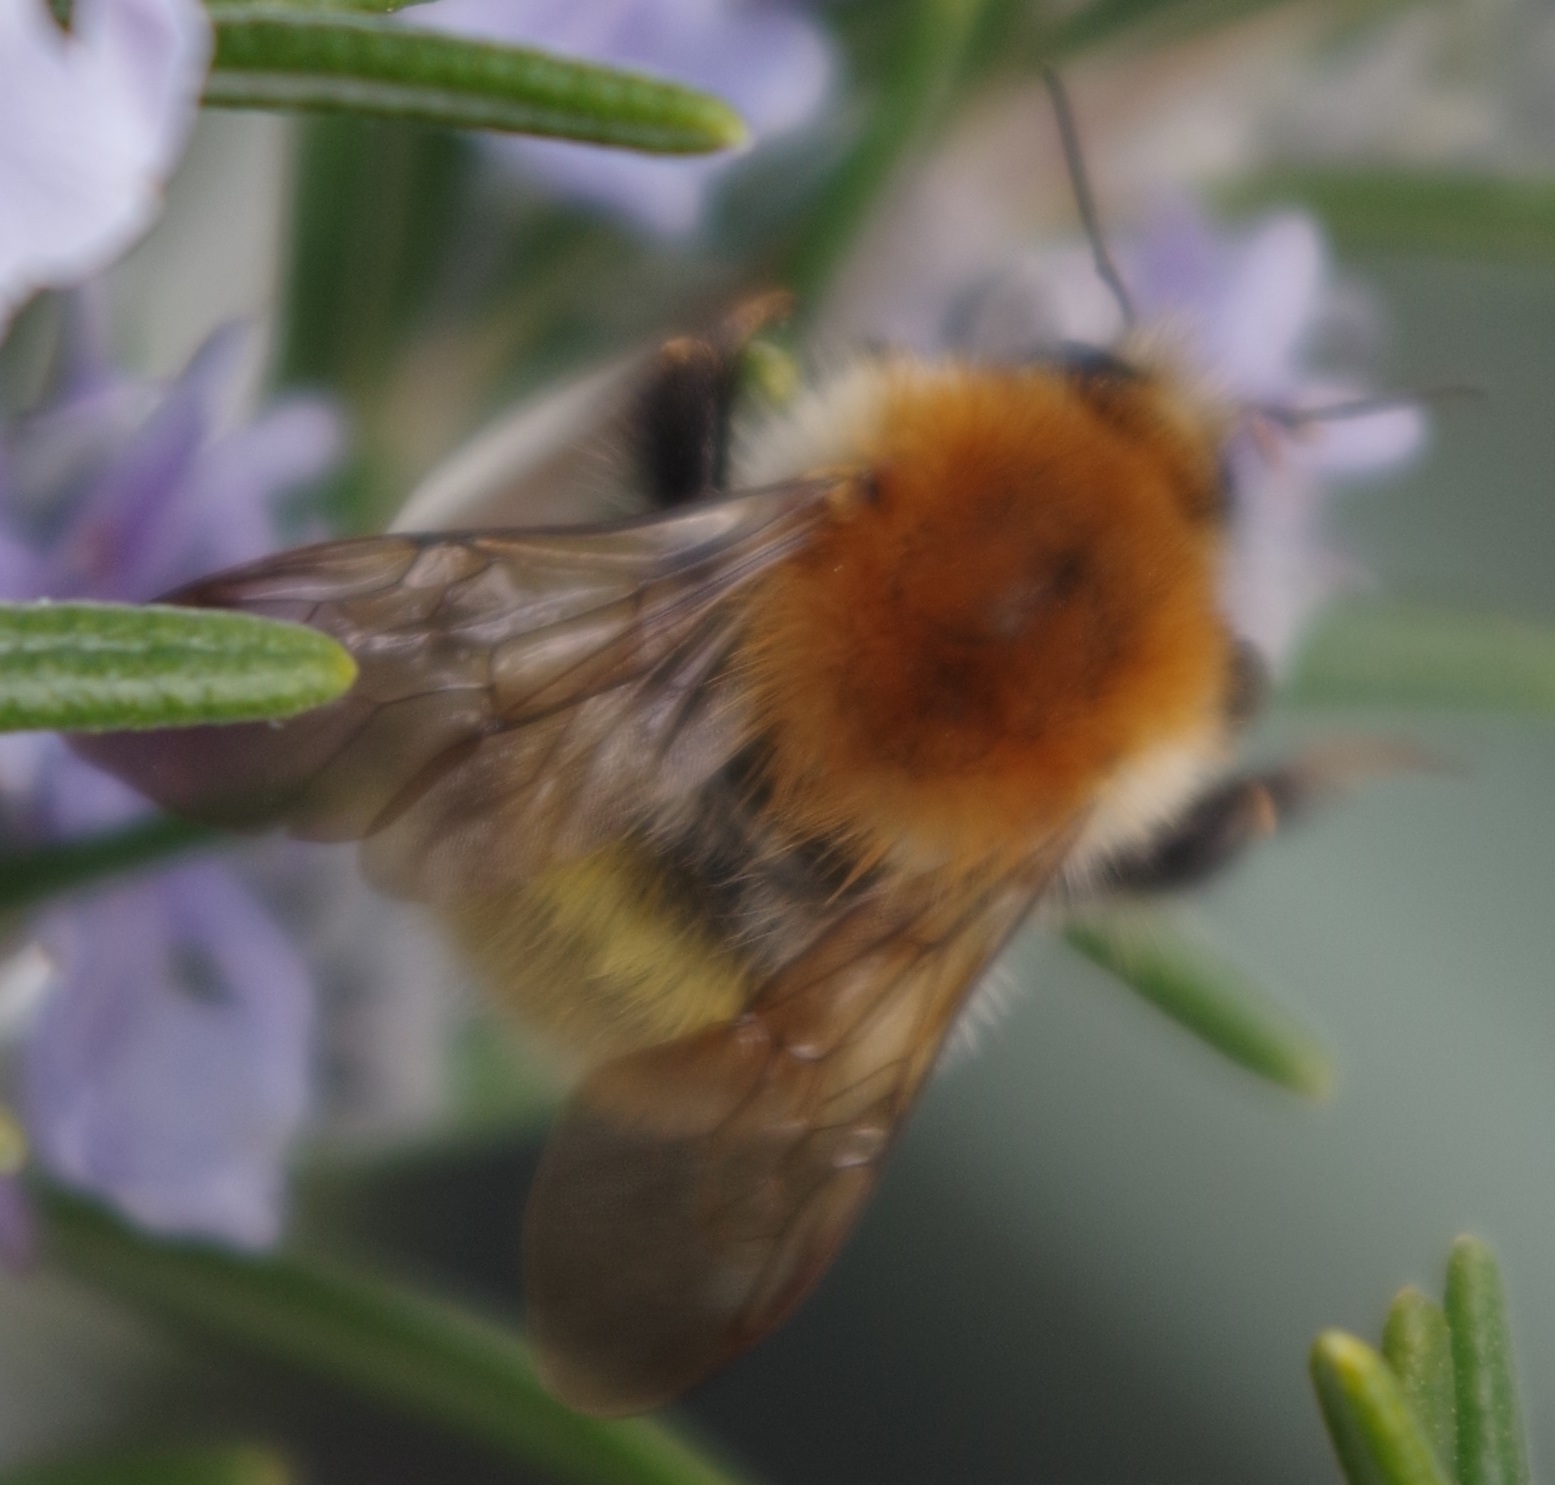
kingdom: Animalia
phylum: Arthropoda
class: Insecta
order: Hymenoptera
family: Apidae
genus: Bombus
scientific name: Bombus pascuorum
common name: Common carder bee
